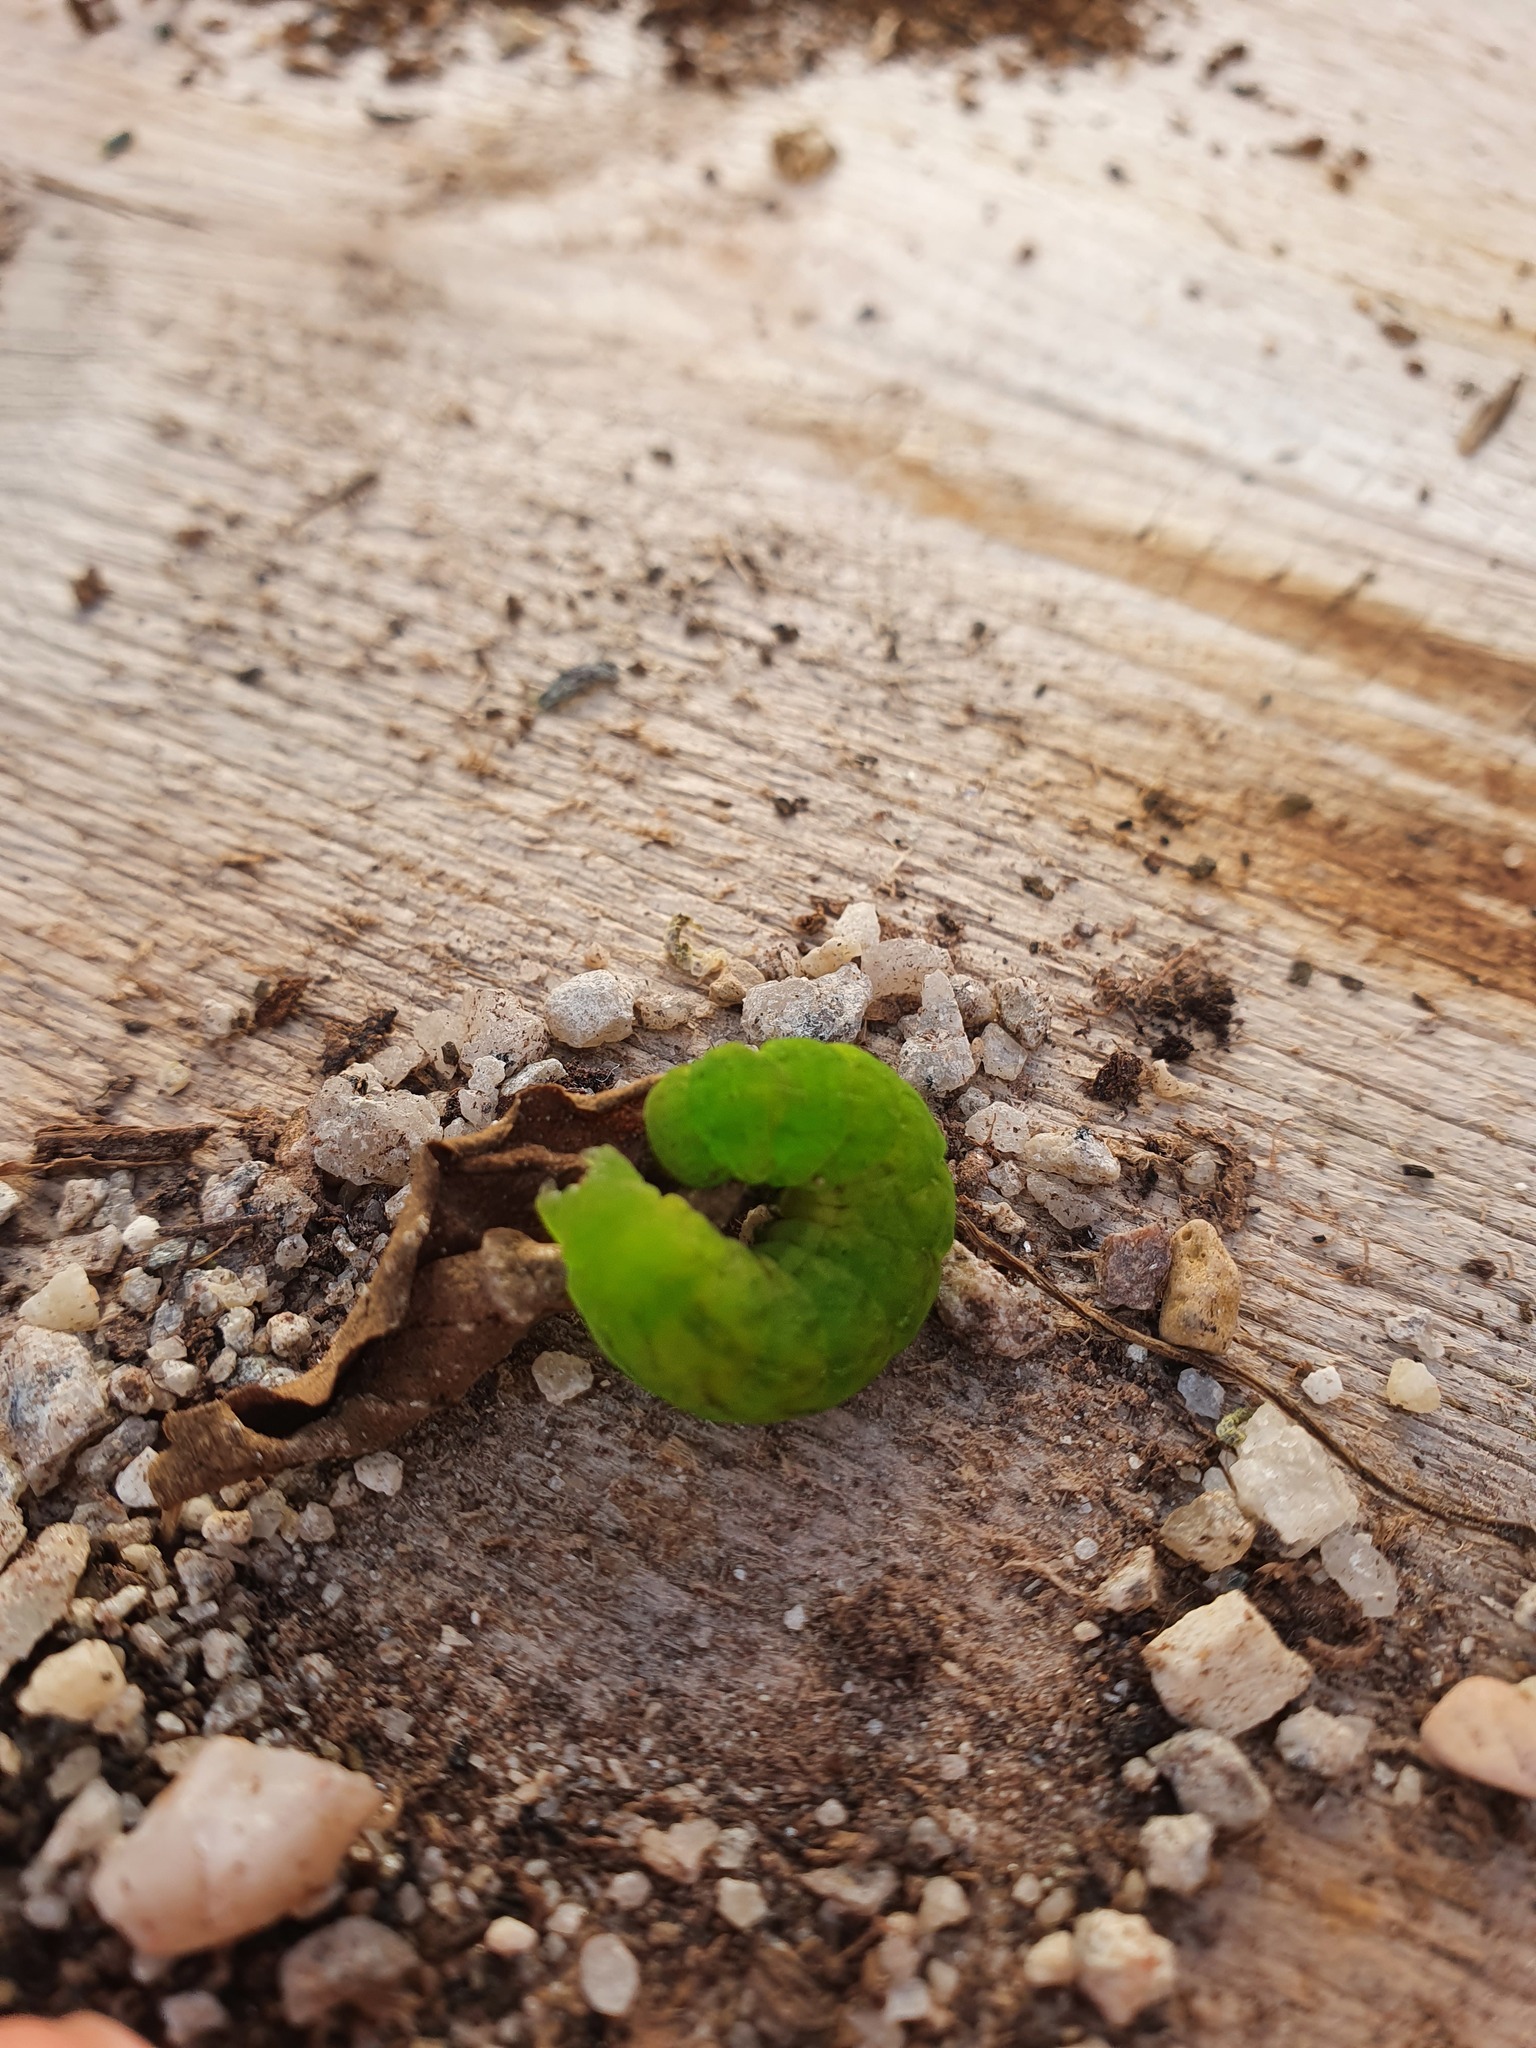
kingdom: Animalia
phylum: Arthropoda
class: Insecta
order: Lepidoptera
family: Noctuidae
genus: Phlogophora
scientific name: Phlogophora meticulosa
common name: Angle shades
